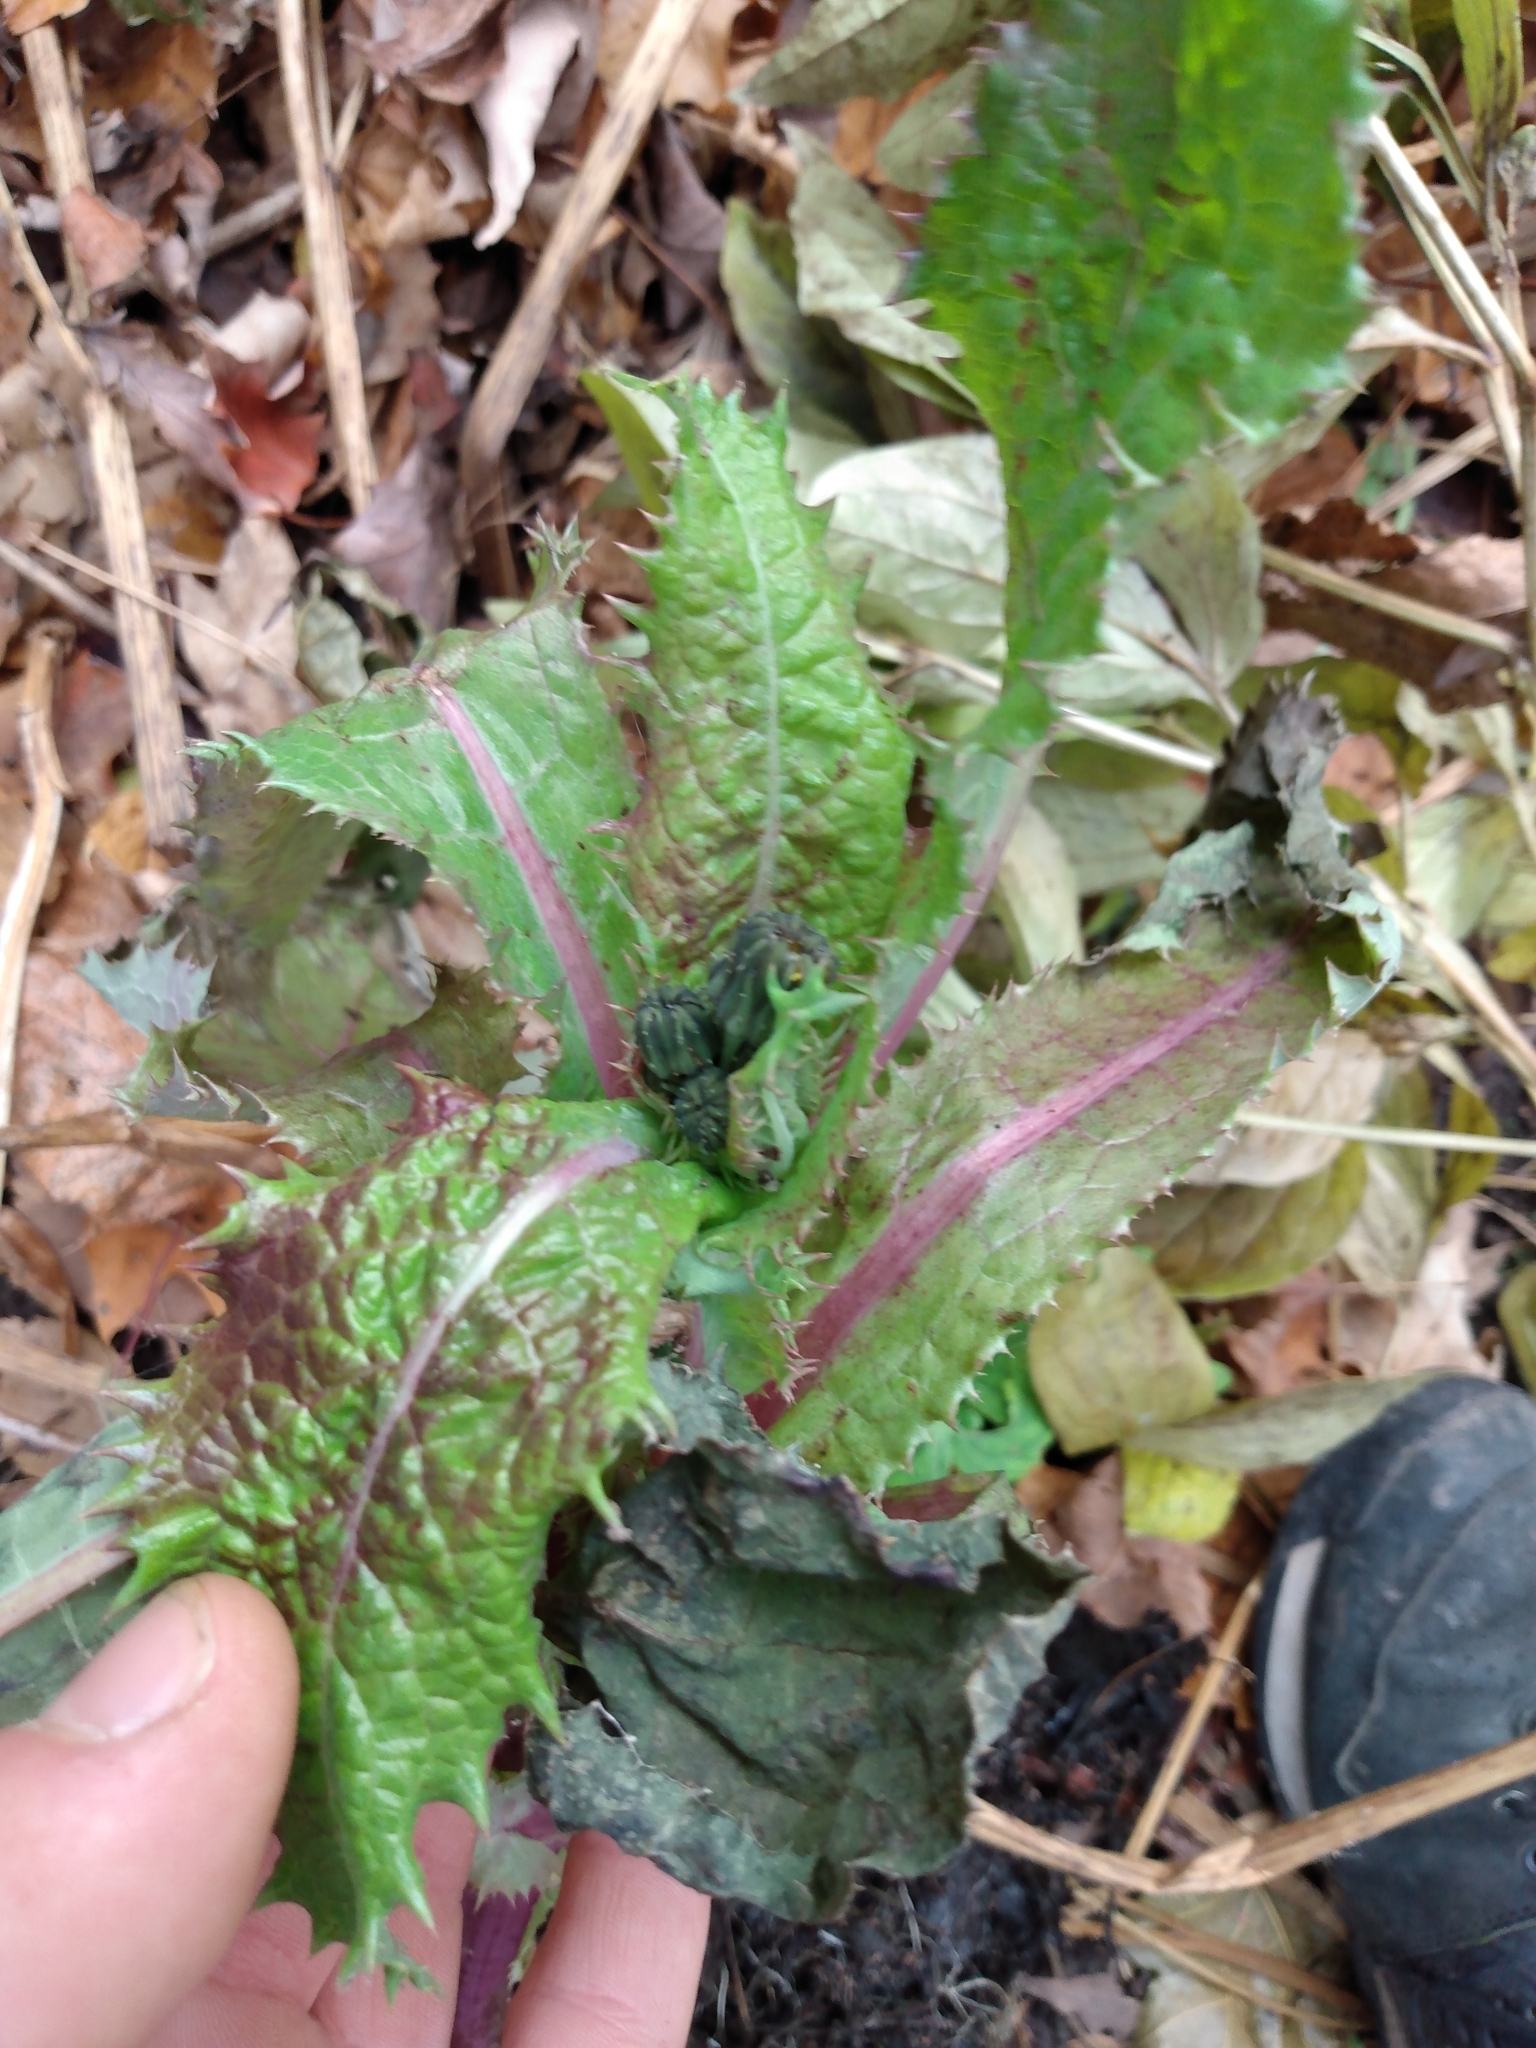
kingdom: Plantae
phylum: Tracheophyta
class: Magnoliopsida
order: Asterales
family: Asteraceae
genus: Sonchus
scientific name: Sonchus asper
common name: Prickly sow-thistle
